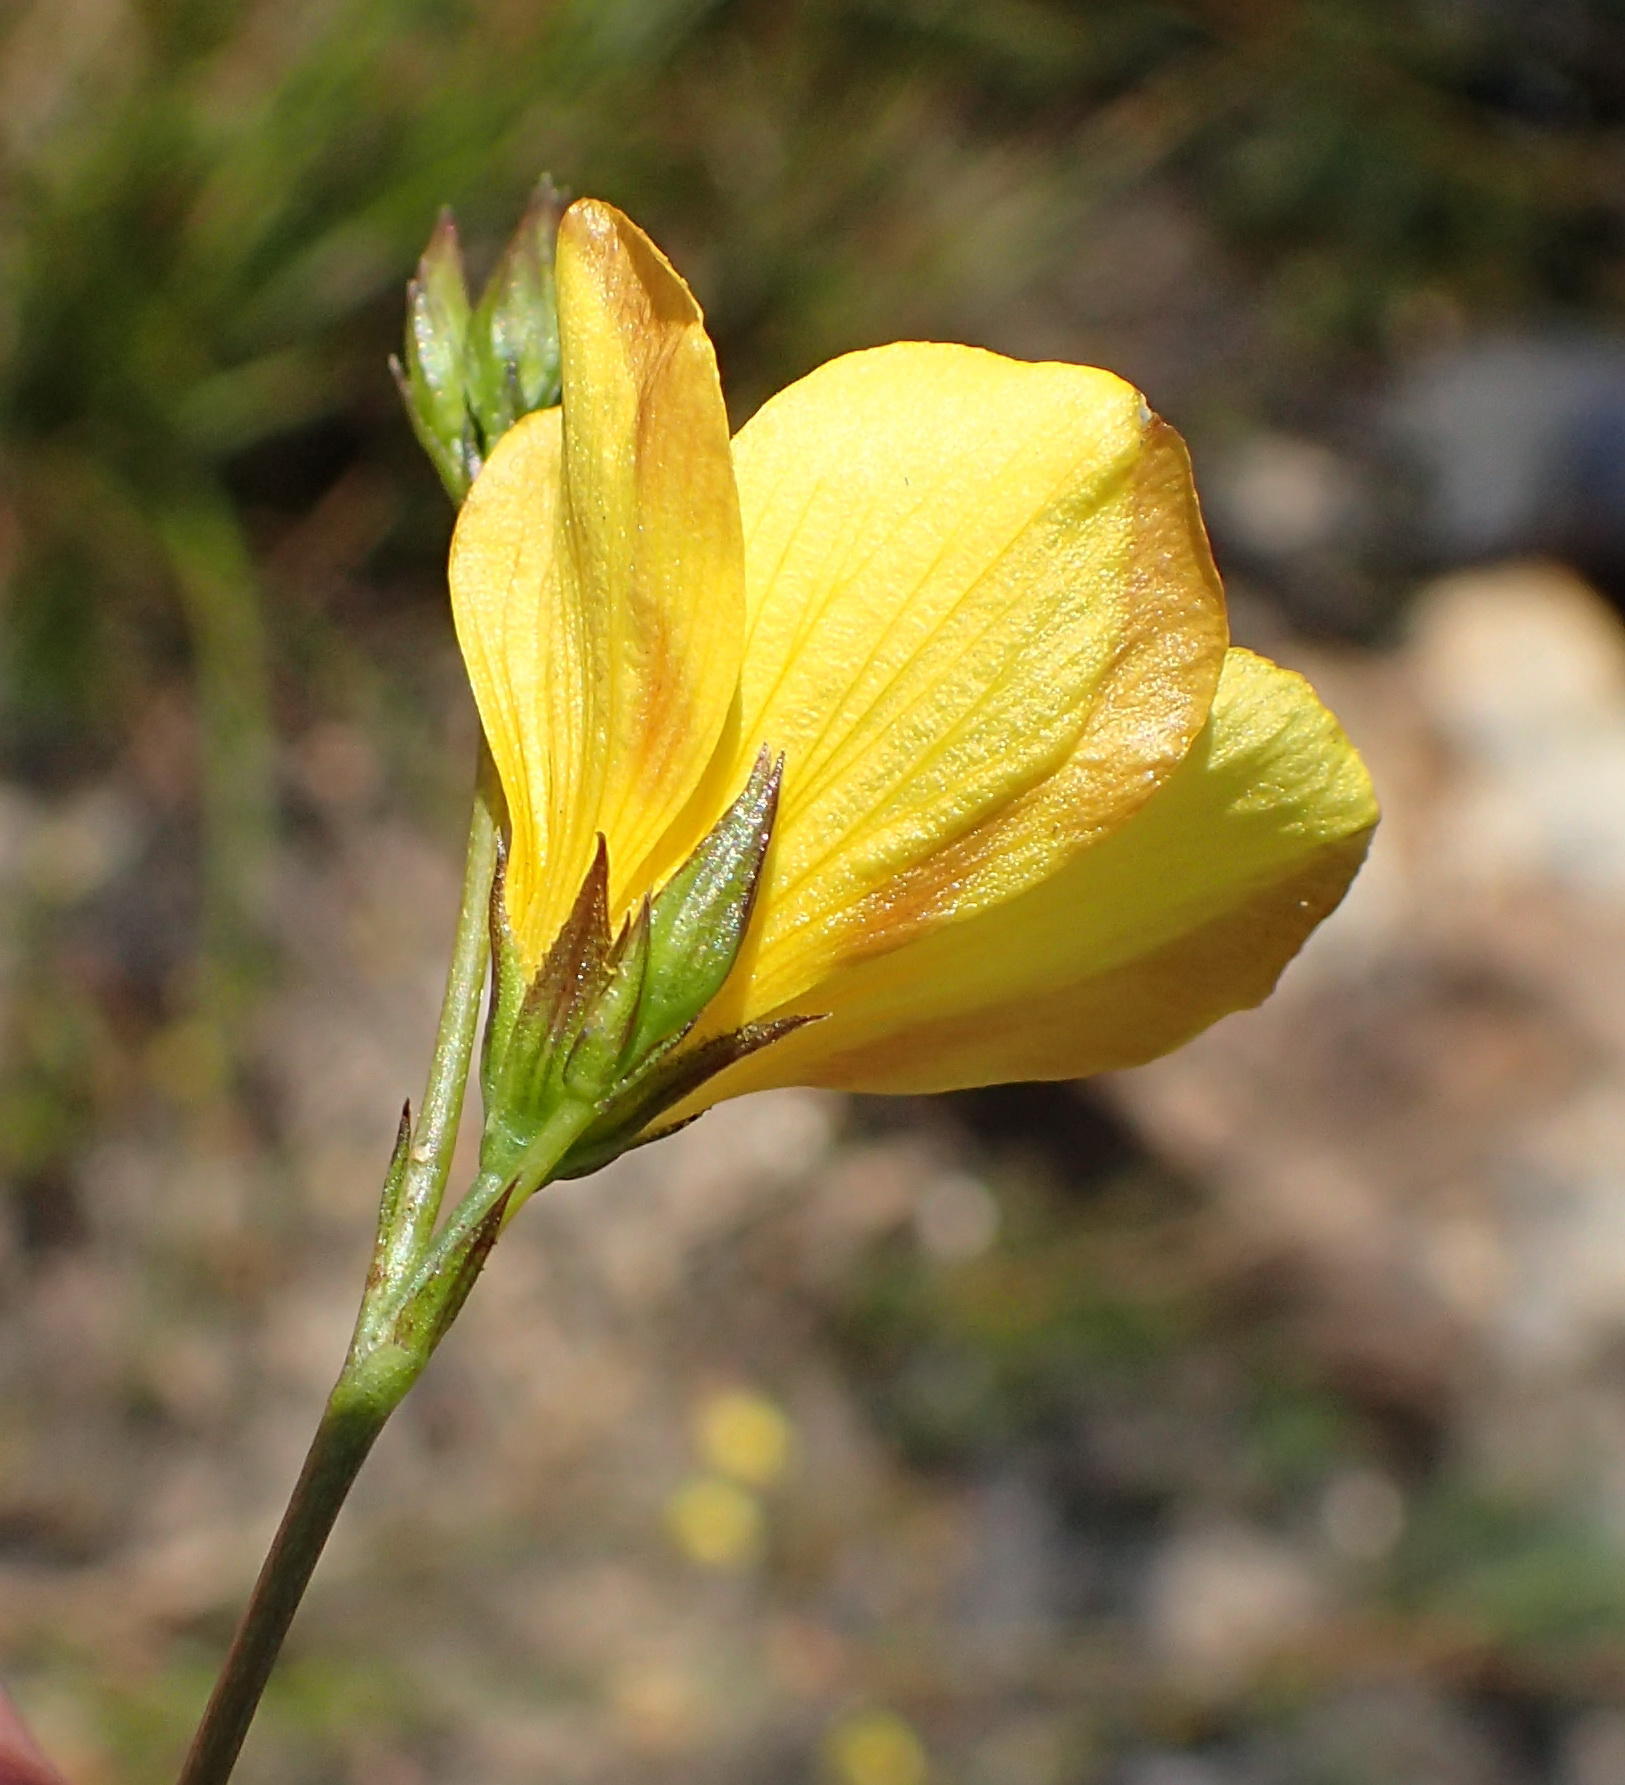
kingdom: Plantae
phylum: Tracheophyta
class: Magnoliopsida
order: Malpighiales
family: Linaceae
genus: Linum
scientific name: Linum africanum
